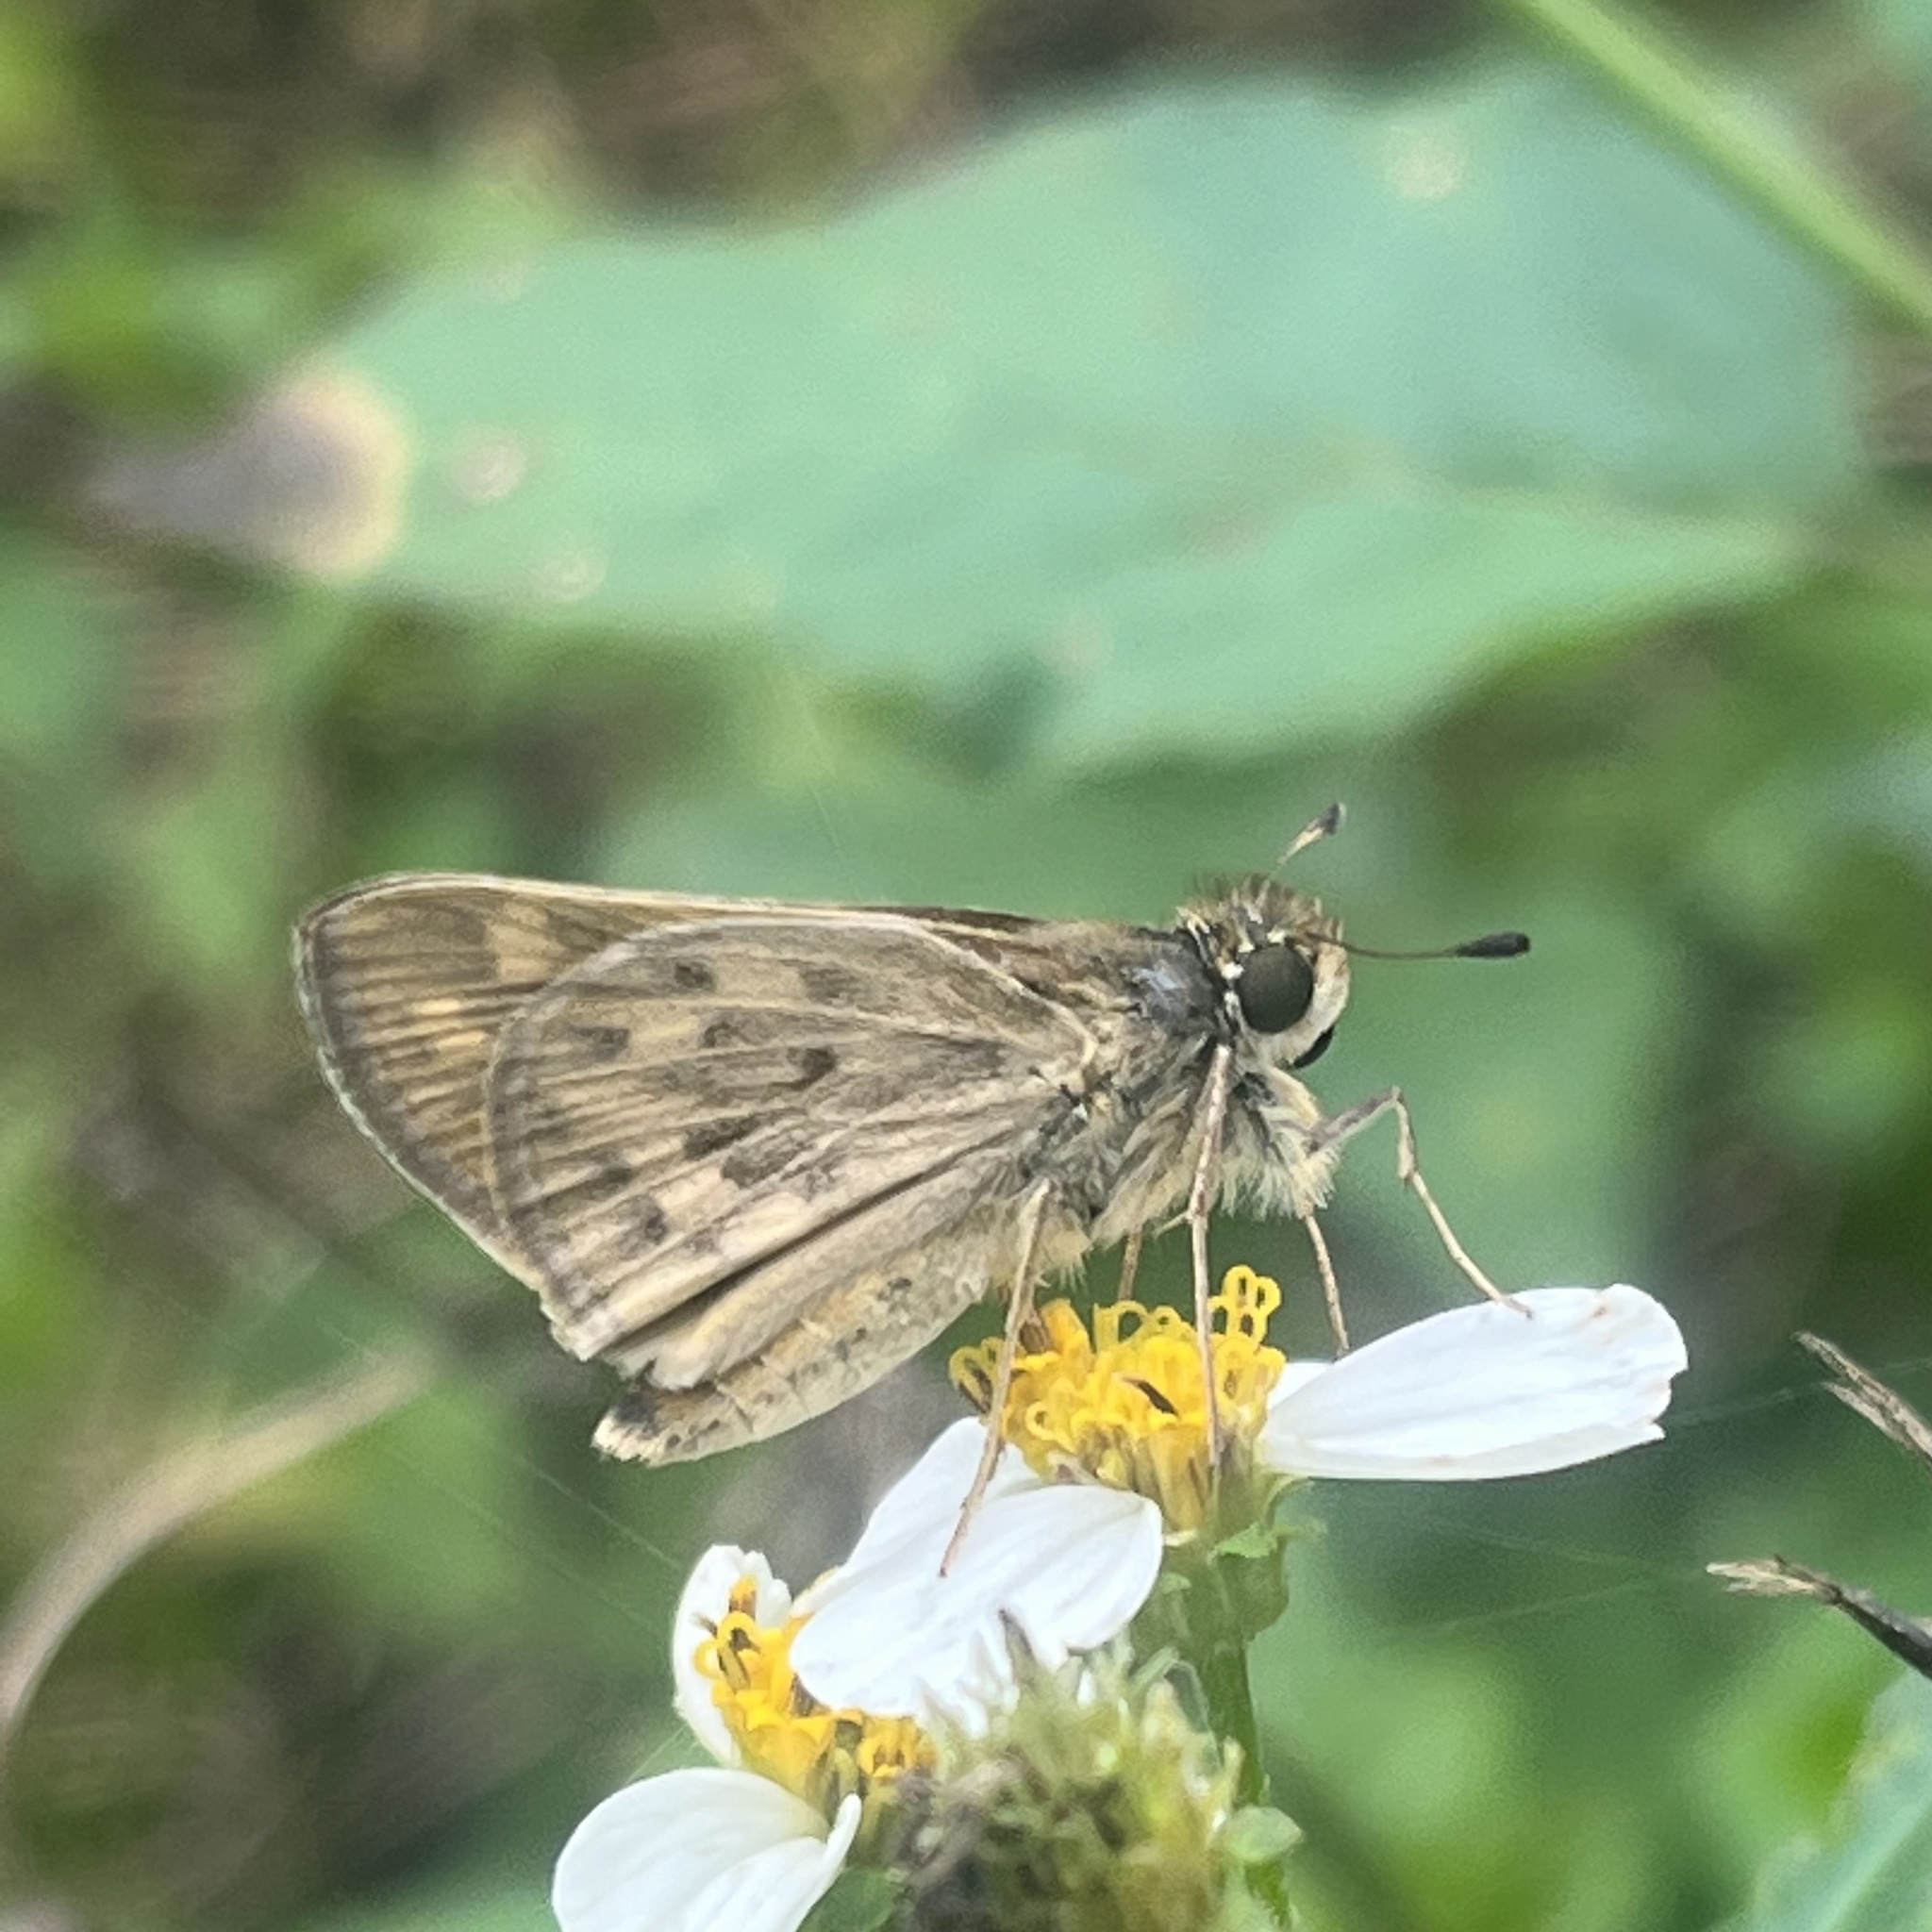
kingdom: Animalia
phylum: Arthropoda
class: Insecta
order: Lepidoptera
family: Hesperiidae
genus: Hylephila
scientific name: Hylephila phyleus
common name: Fiery skipper
